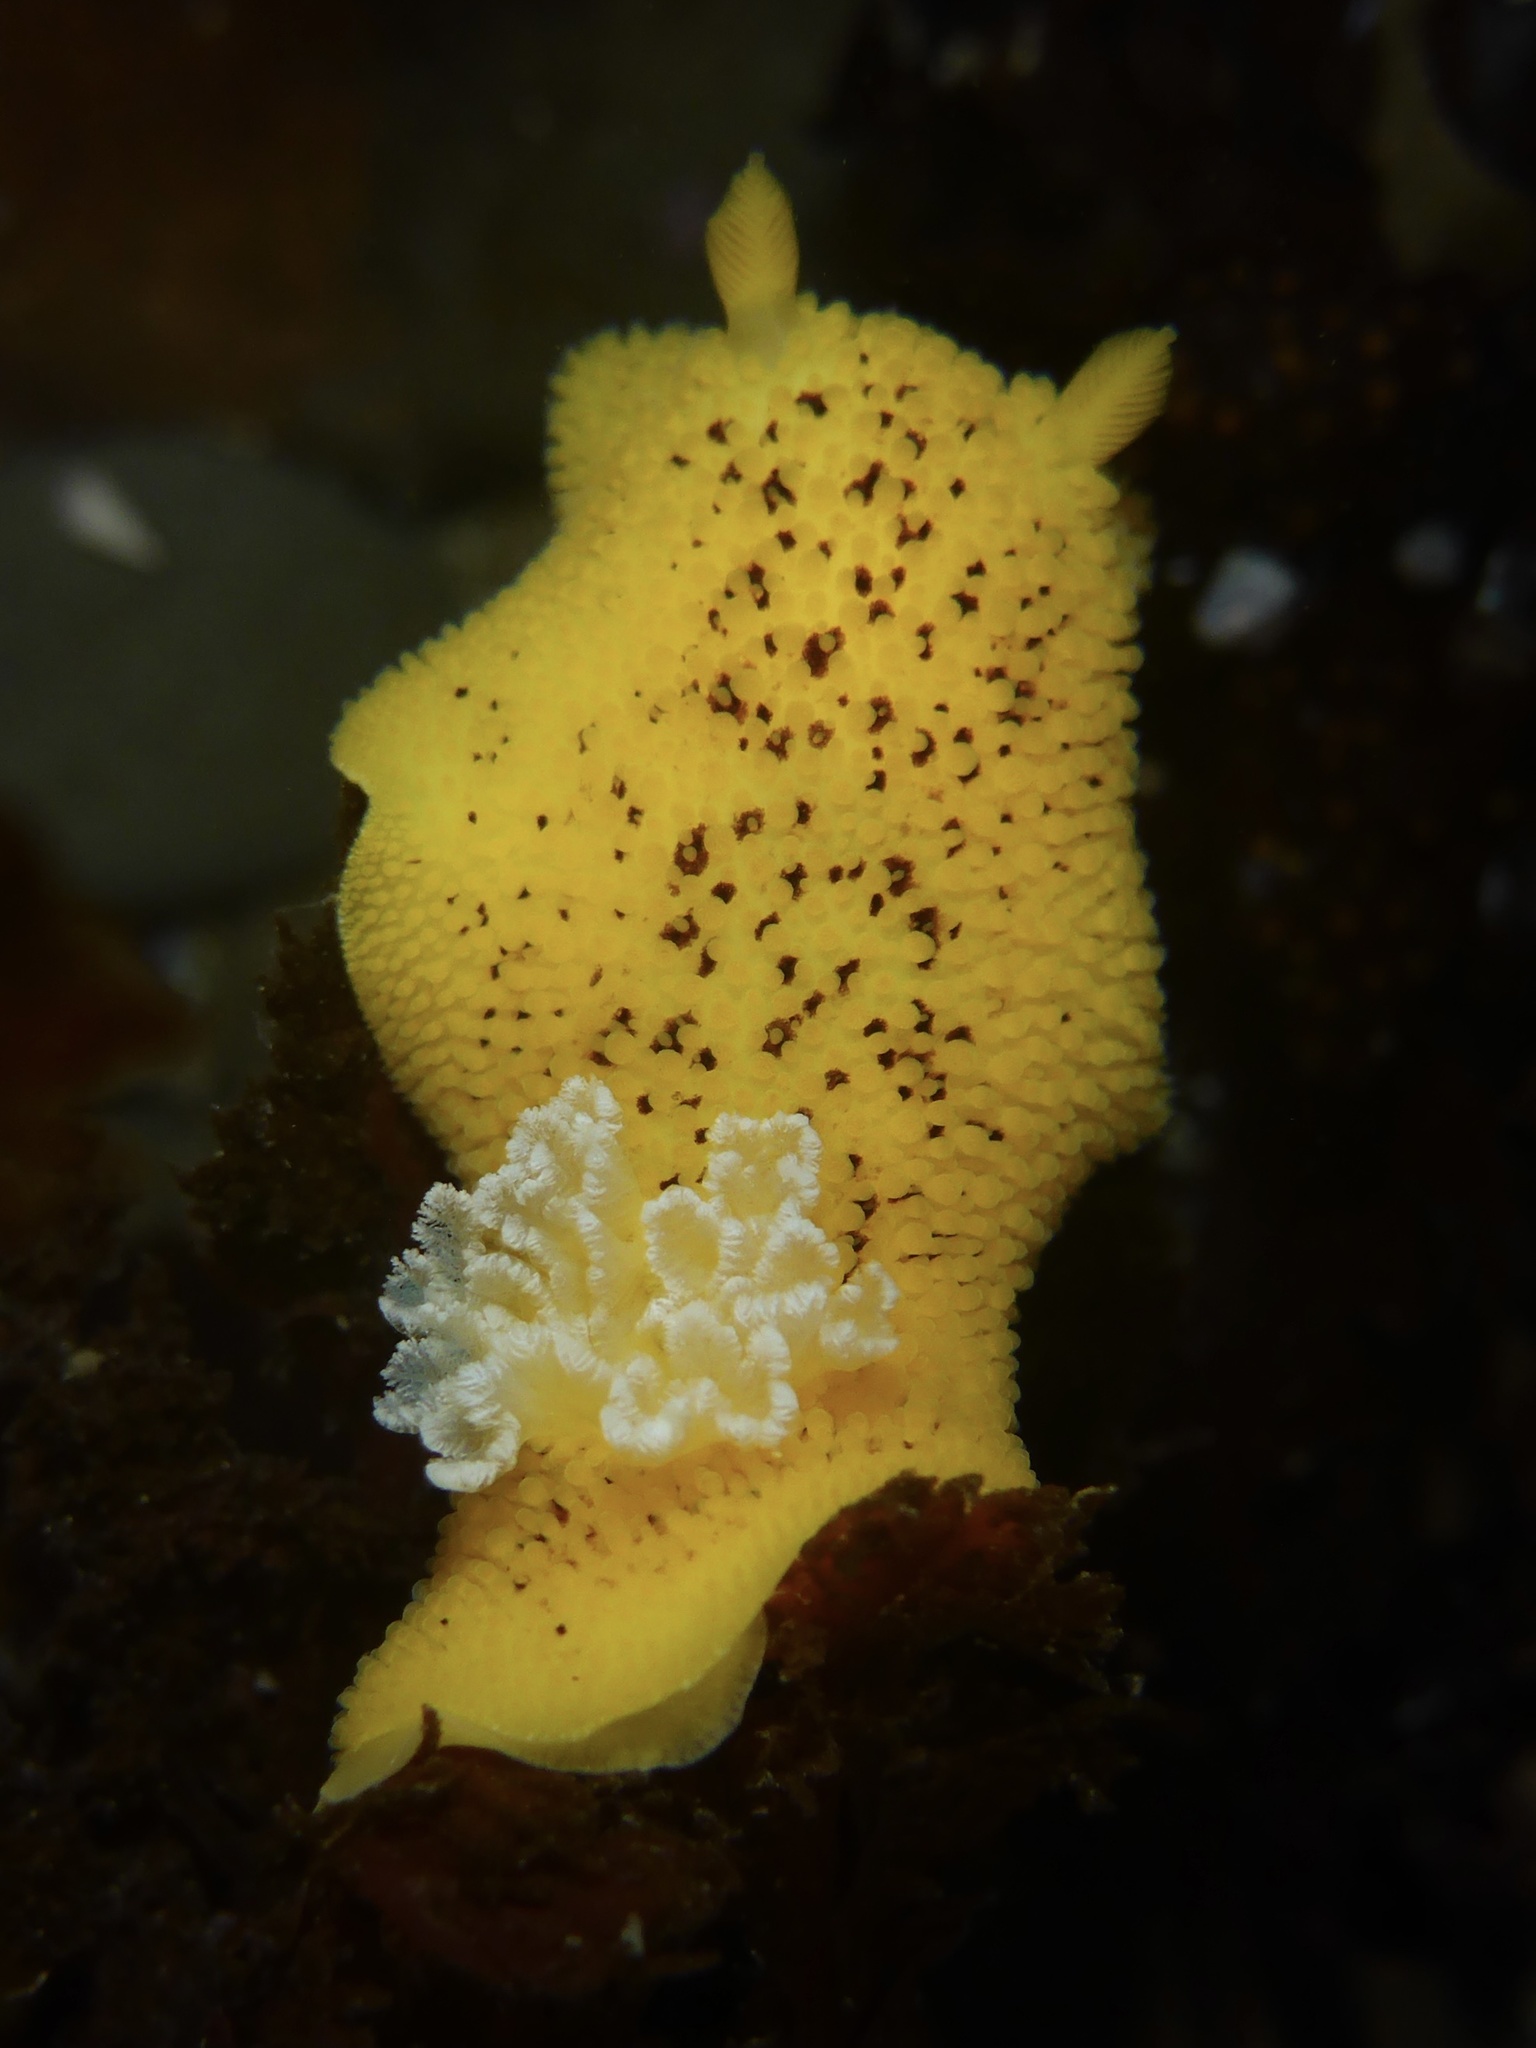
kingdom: Animalia
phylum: Mollusca
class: Gastropoda
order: Nudibranchia
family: Discodorididae
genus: Peltodoris
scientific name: Peltodoris nobilis
